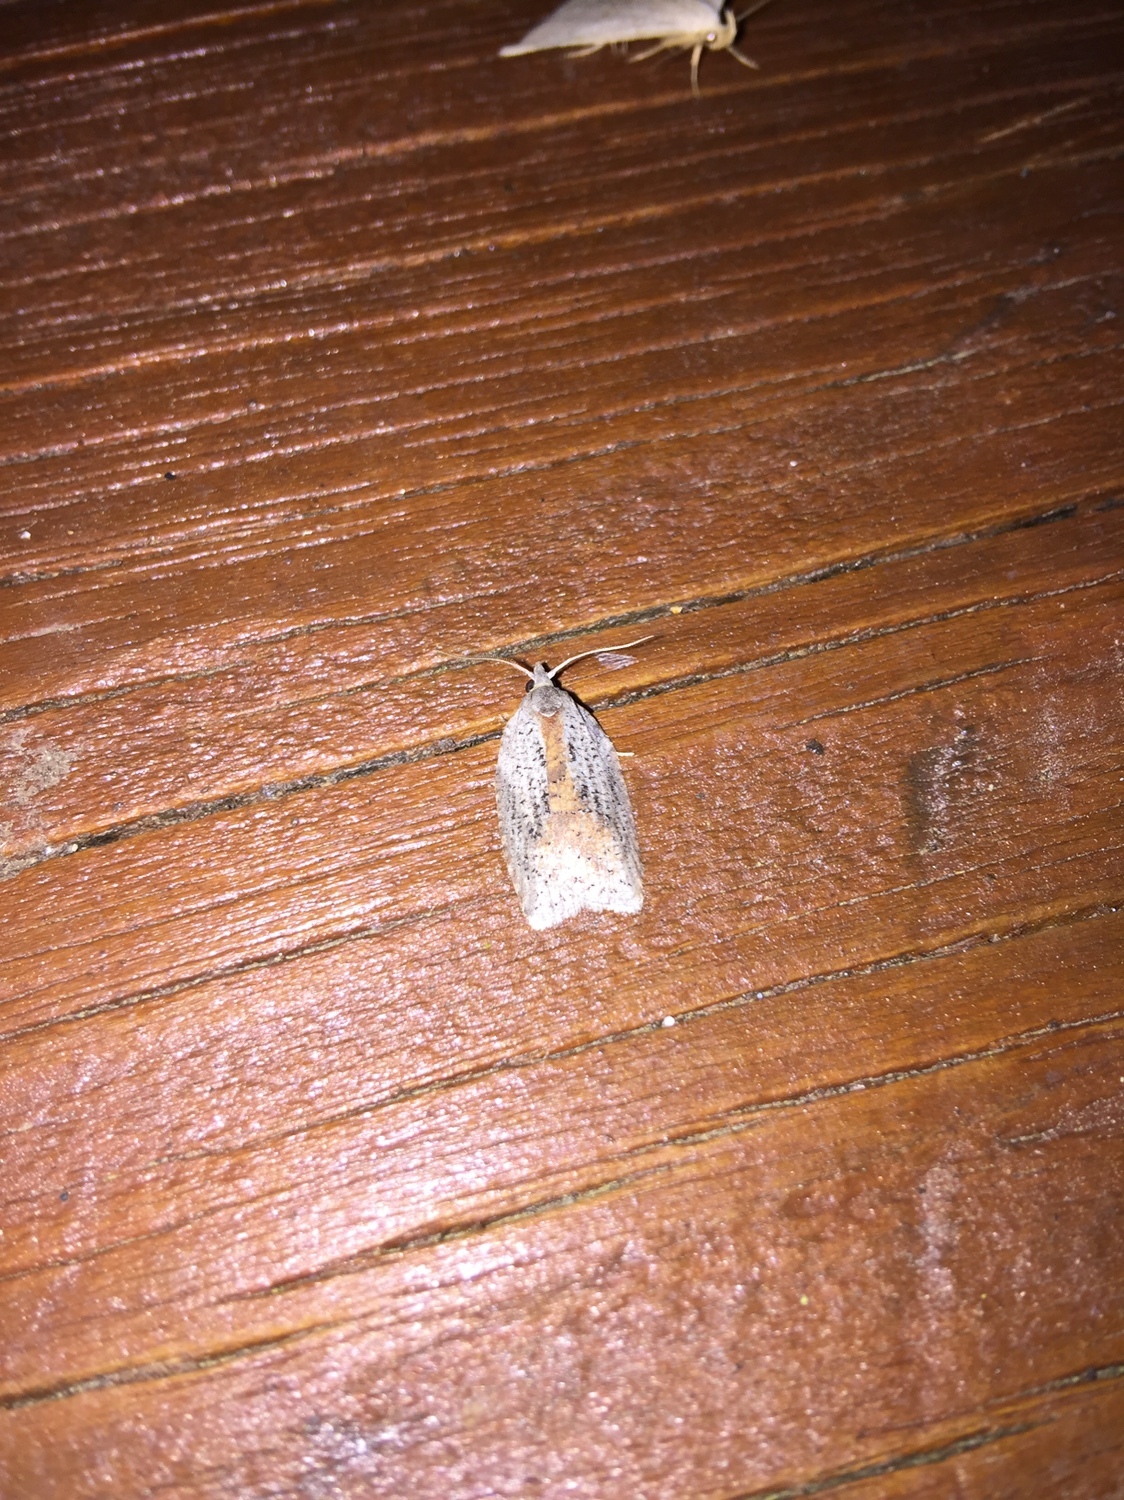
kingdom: Animalia
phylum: Arthropoda
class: Insecta
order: Lepidoptera
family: Tortricidae
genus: Amorbia
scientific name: Amorbia humerosana
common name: White-lined leafroller moth
